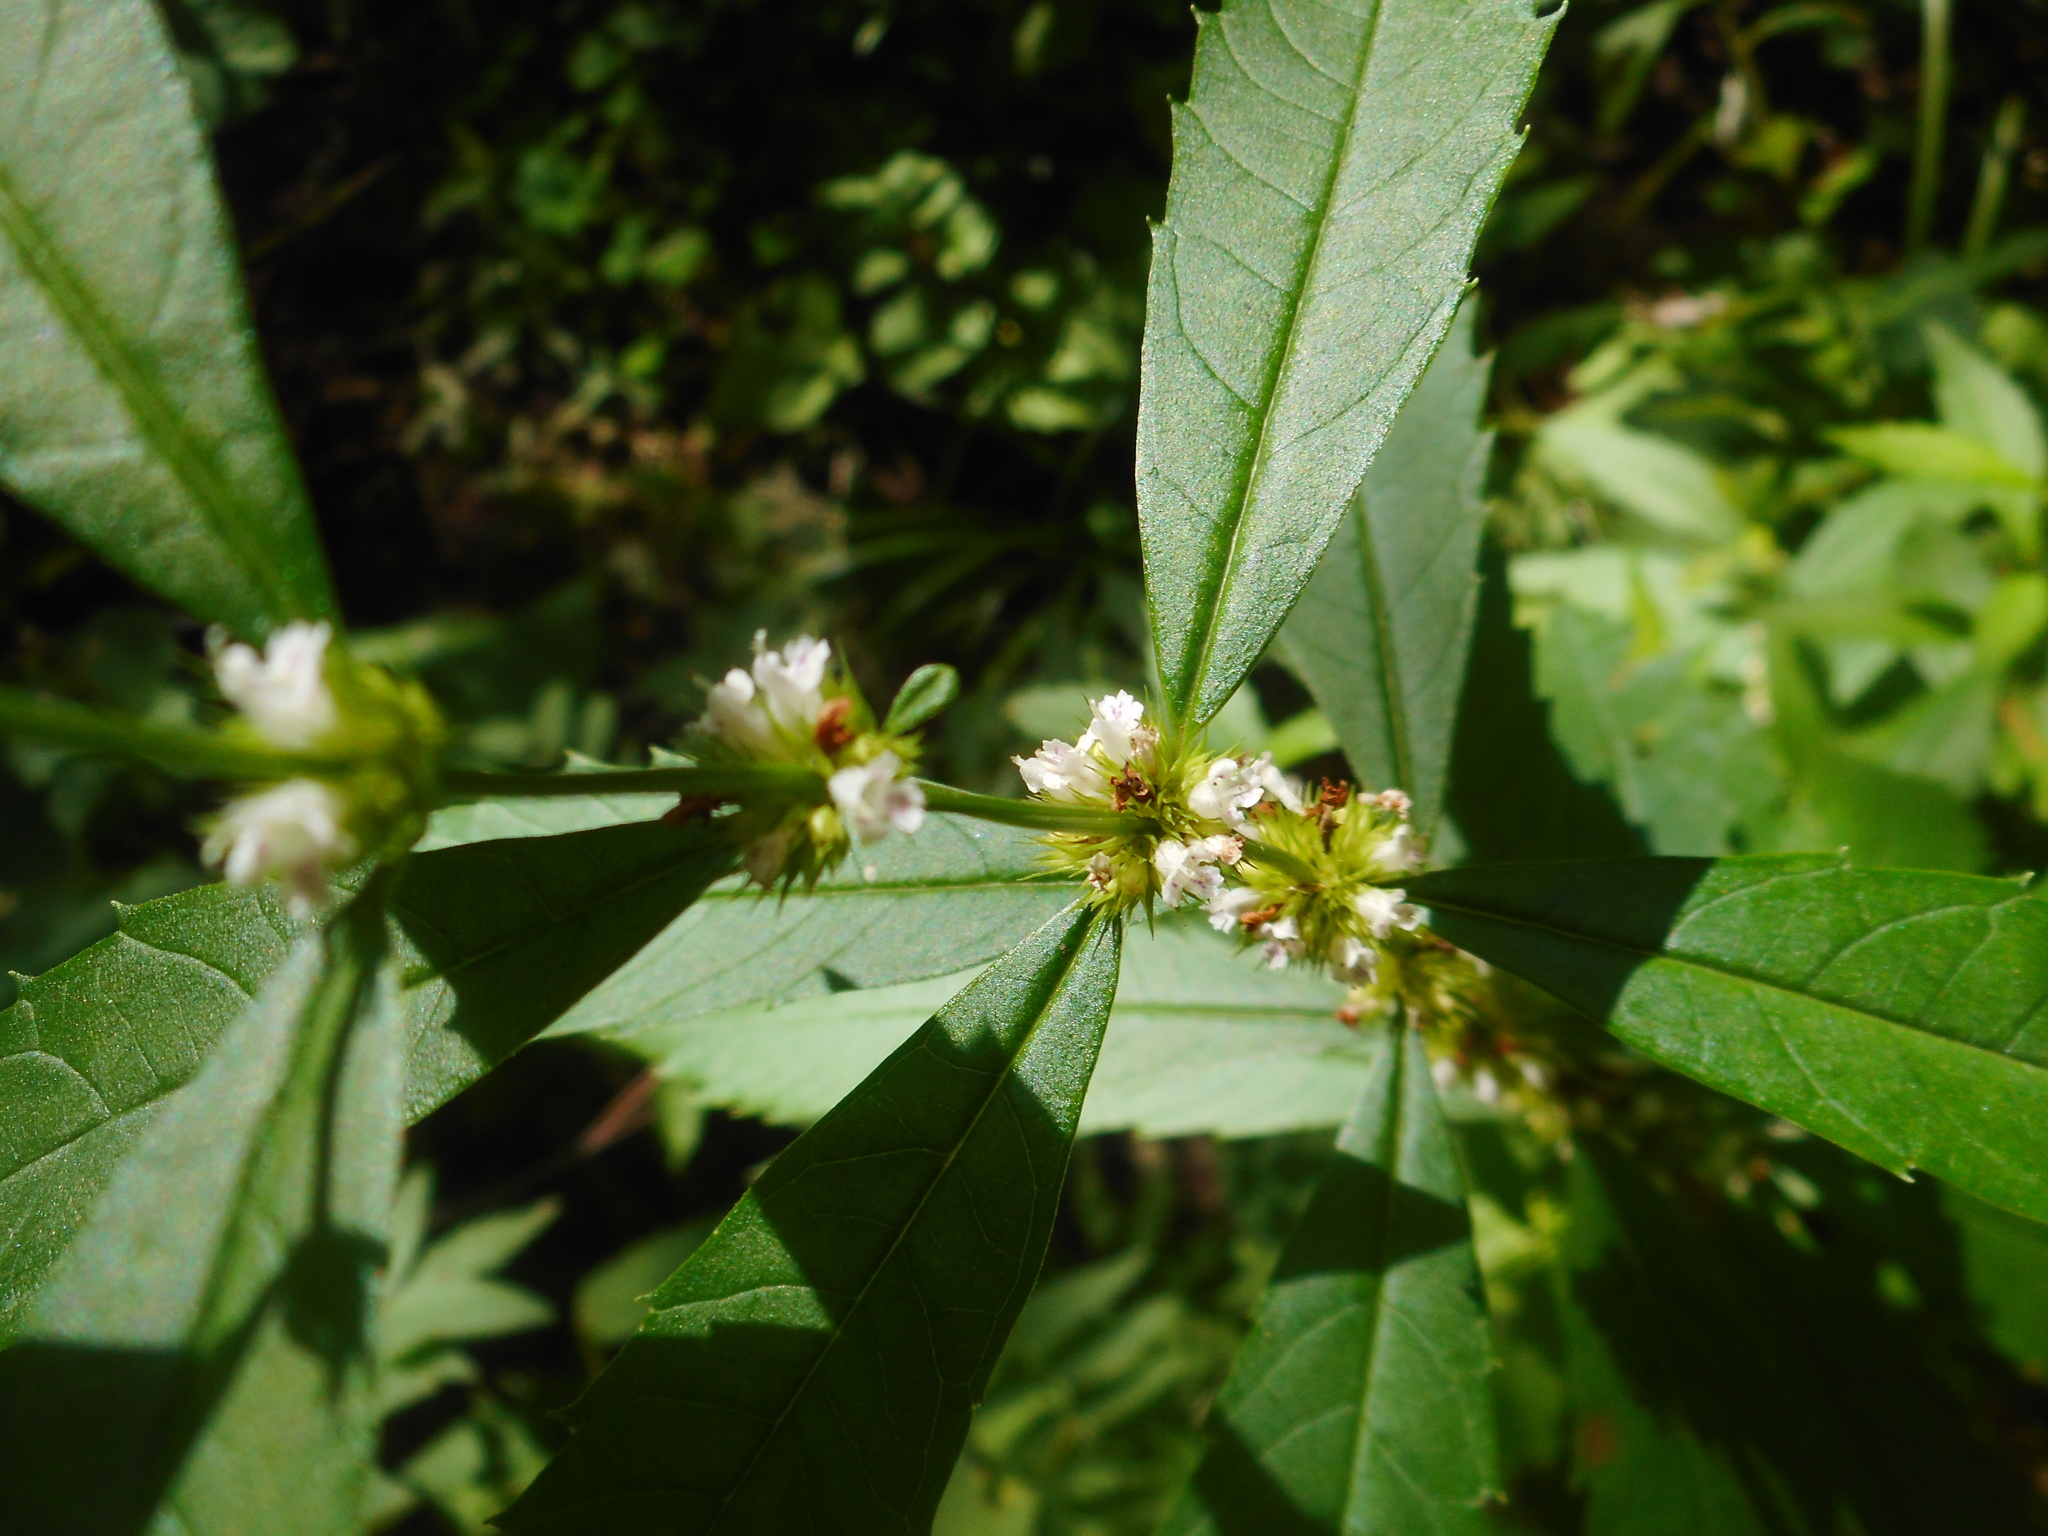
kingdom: Plantae
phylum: Tracheophyta
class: Magnoliopsida
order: Lamiales
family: Lamiaceae
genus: Lycopus
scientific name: Lycopus lucidus
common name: Shiny bugleweed
